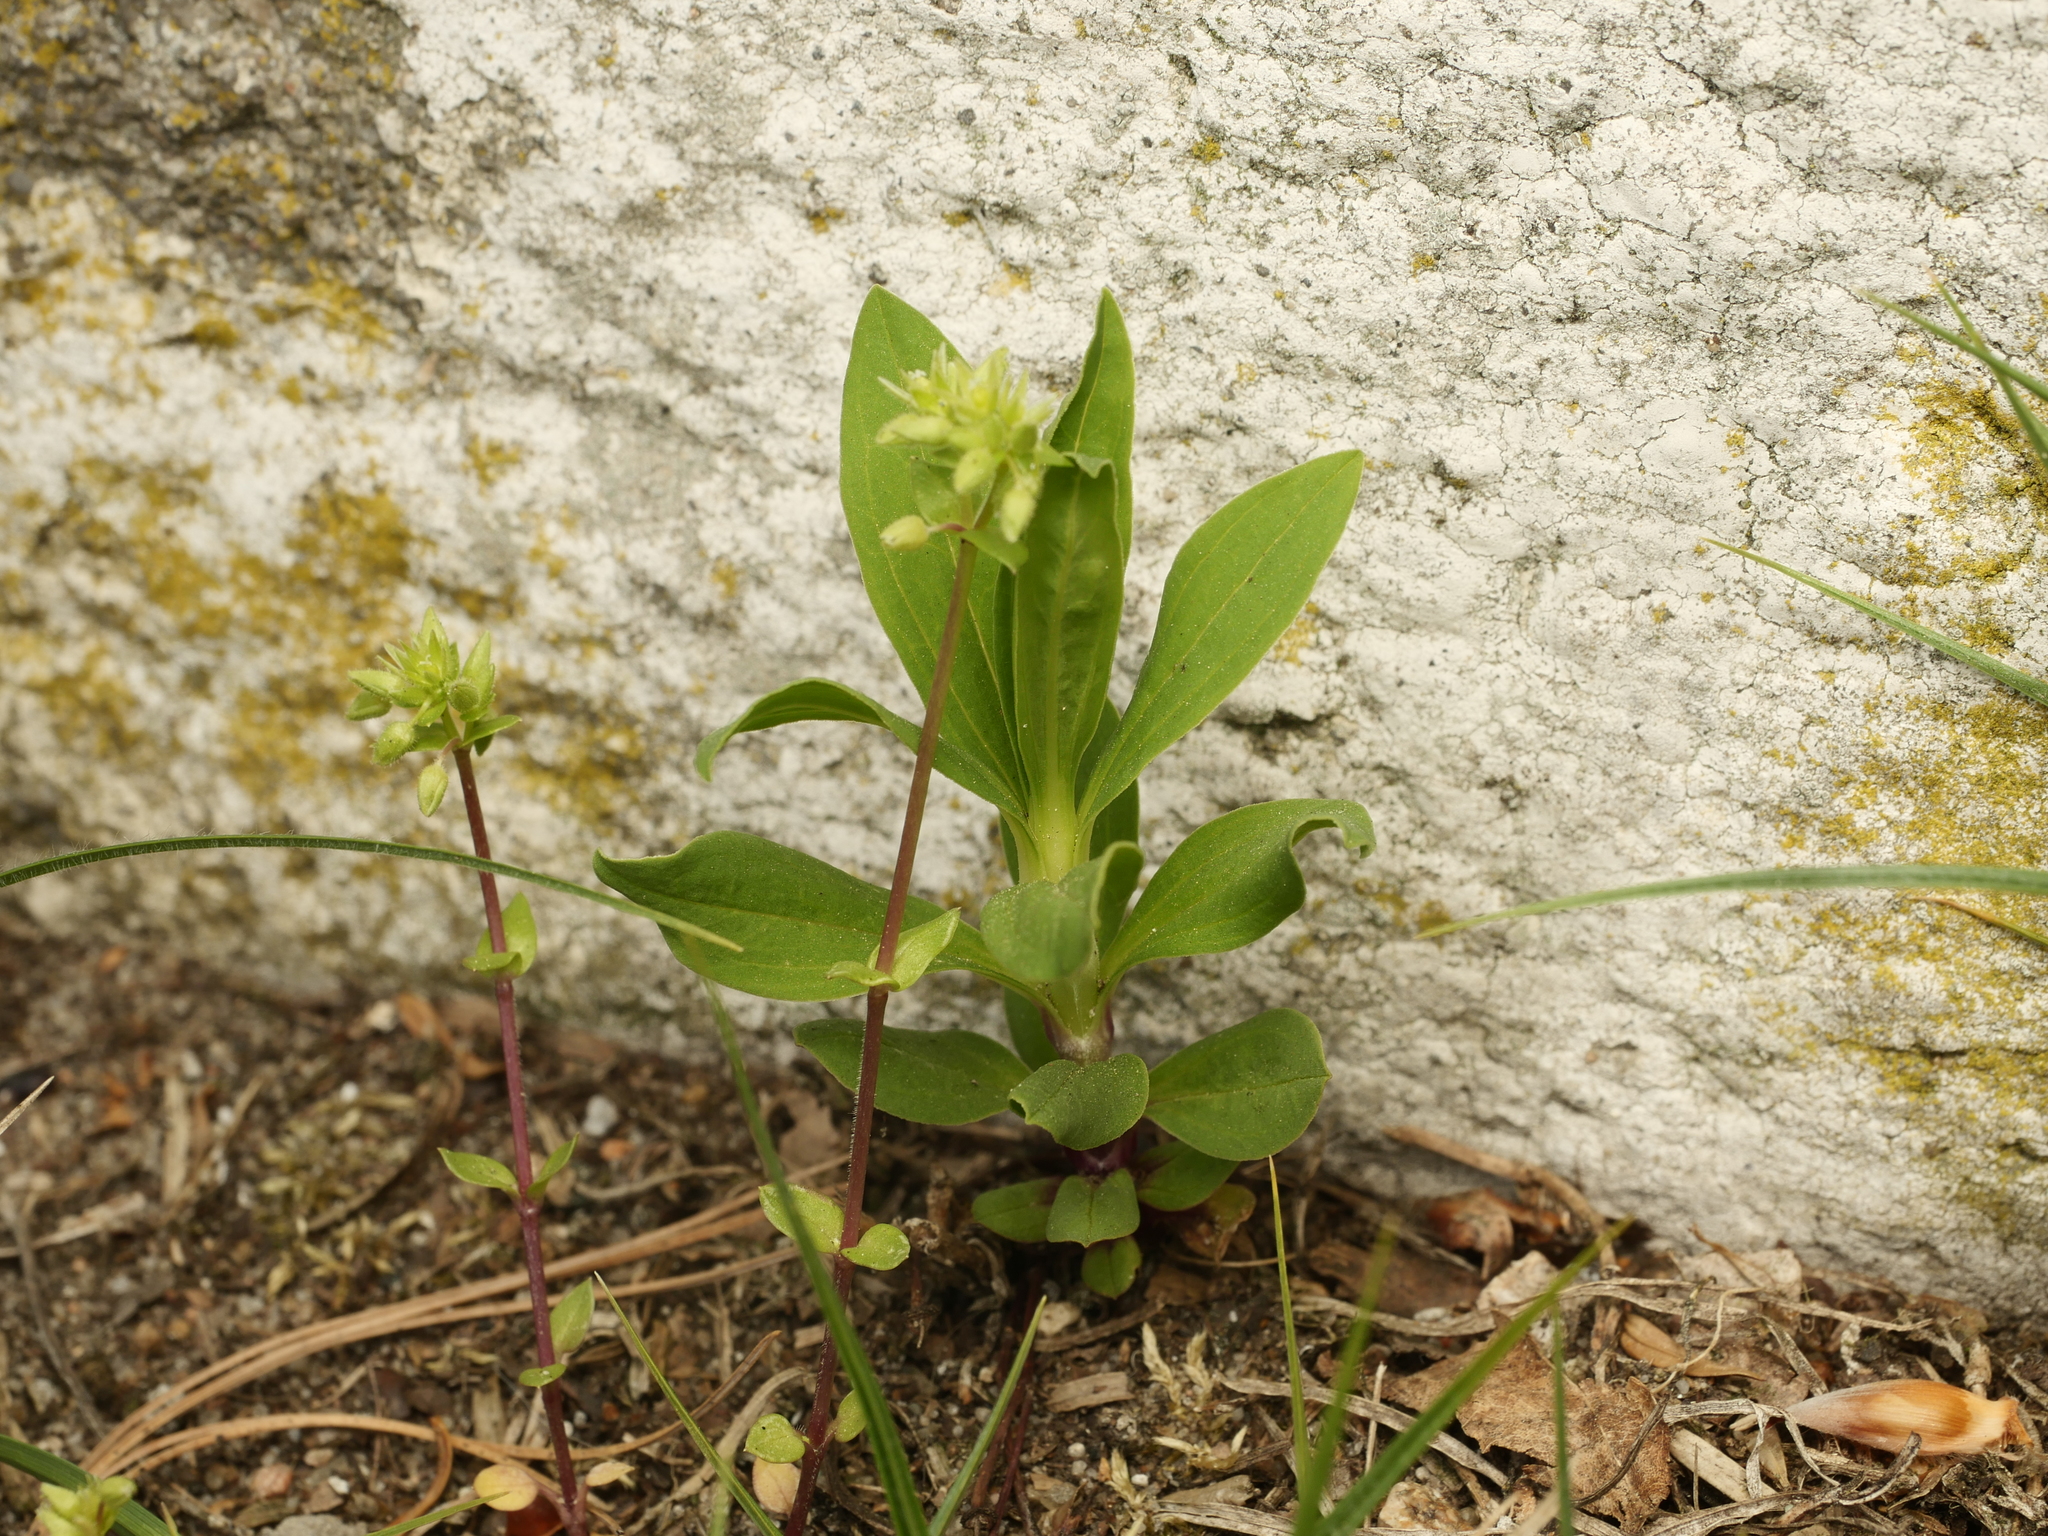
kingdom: Plantae
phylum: Tracheophyta
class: Magnoliopsida
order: Caryophyllales
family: Caryophyllaceae
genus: Saponaria
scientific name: Saponaria officinalis
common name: Soapwort
